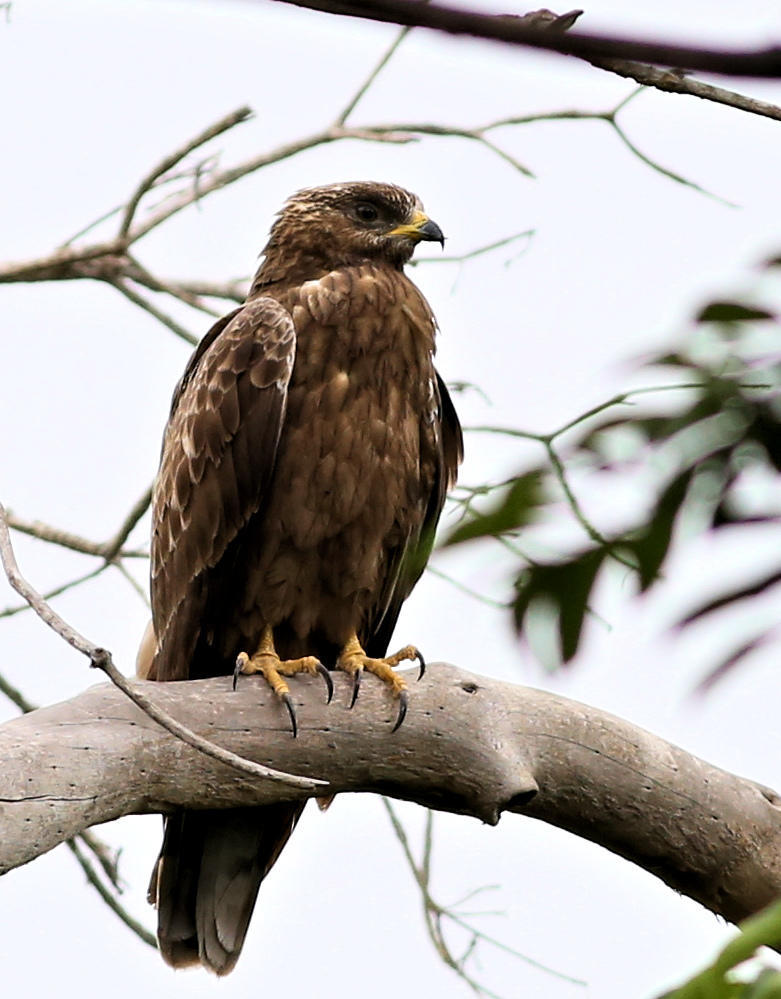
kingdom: Animalia
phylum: Chordata
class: Aves
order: Accipitriformes
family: Accipitridae
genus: Pernis
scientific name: Pernis apivorus
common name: European honey buzzard
